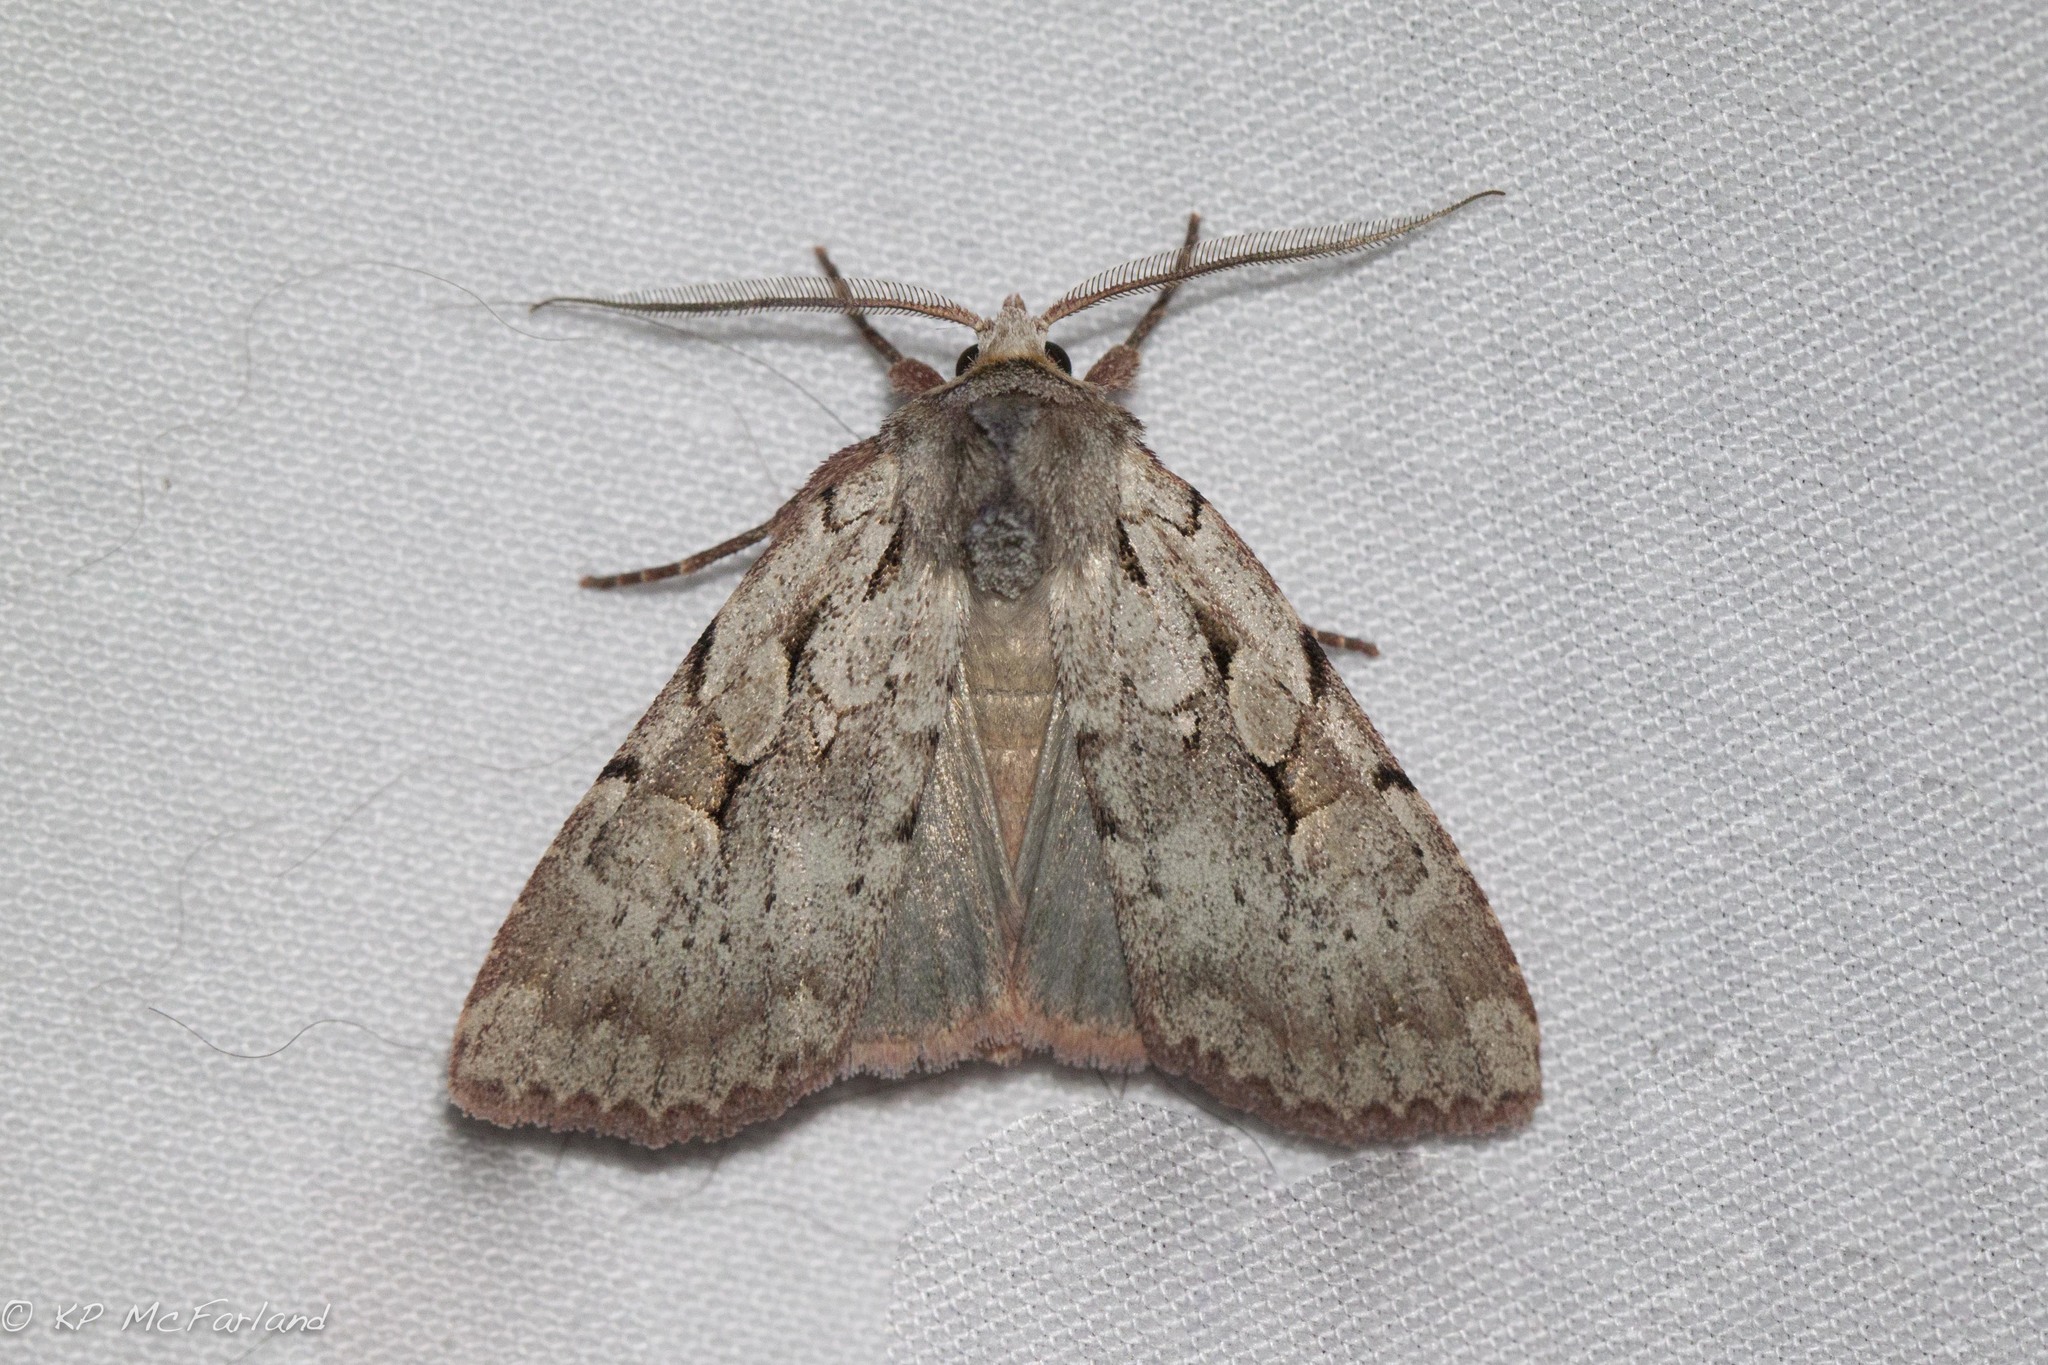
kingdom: Animalia
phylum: Arthropoda
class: Insecta
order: Lepidoptera
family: Noctuidae
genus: Xestia
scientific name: Xestia badicollis
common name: Northern variable dart
